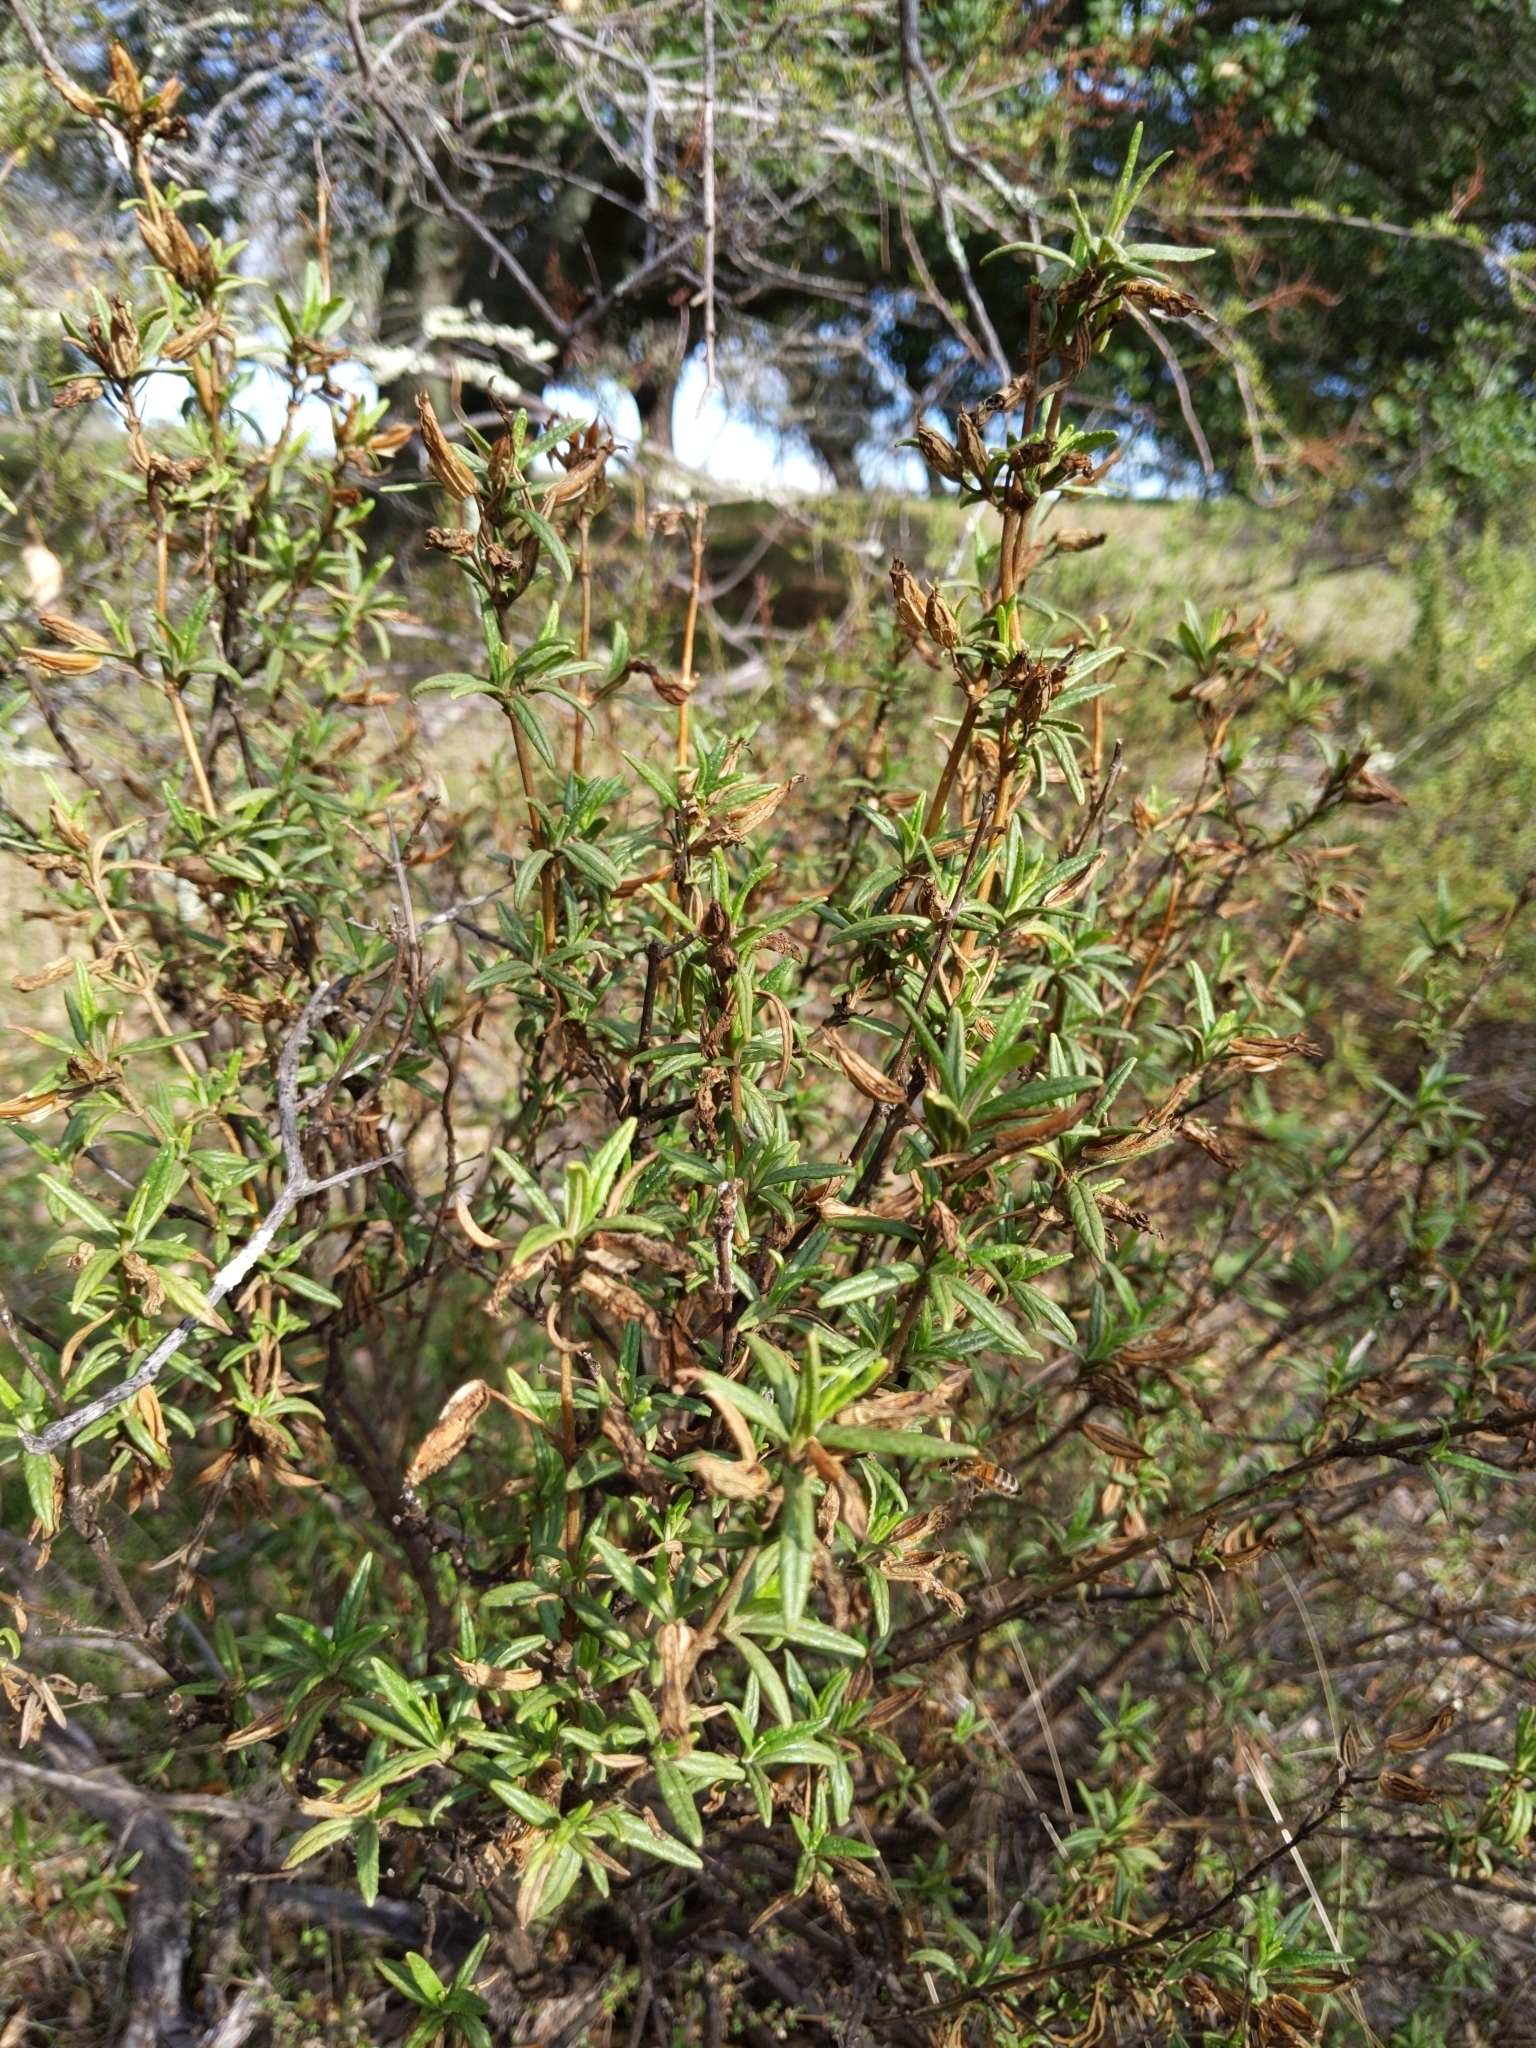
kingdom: Plantae
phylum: Tracheophyta
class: Magnoliopsida
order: Lamiales
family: Phrymaceae
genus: Diplacus
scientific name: Diplacus aurantiacus
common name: Bush monkey-flower
